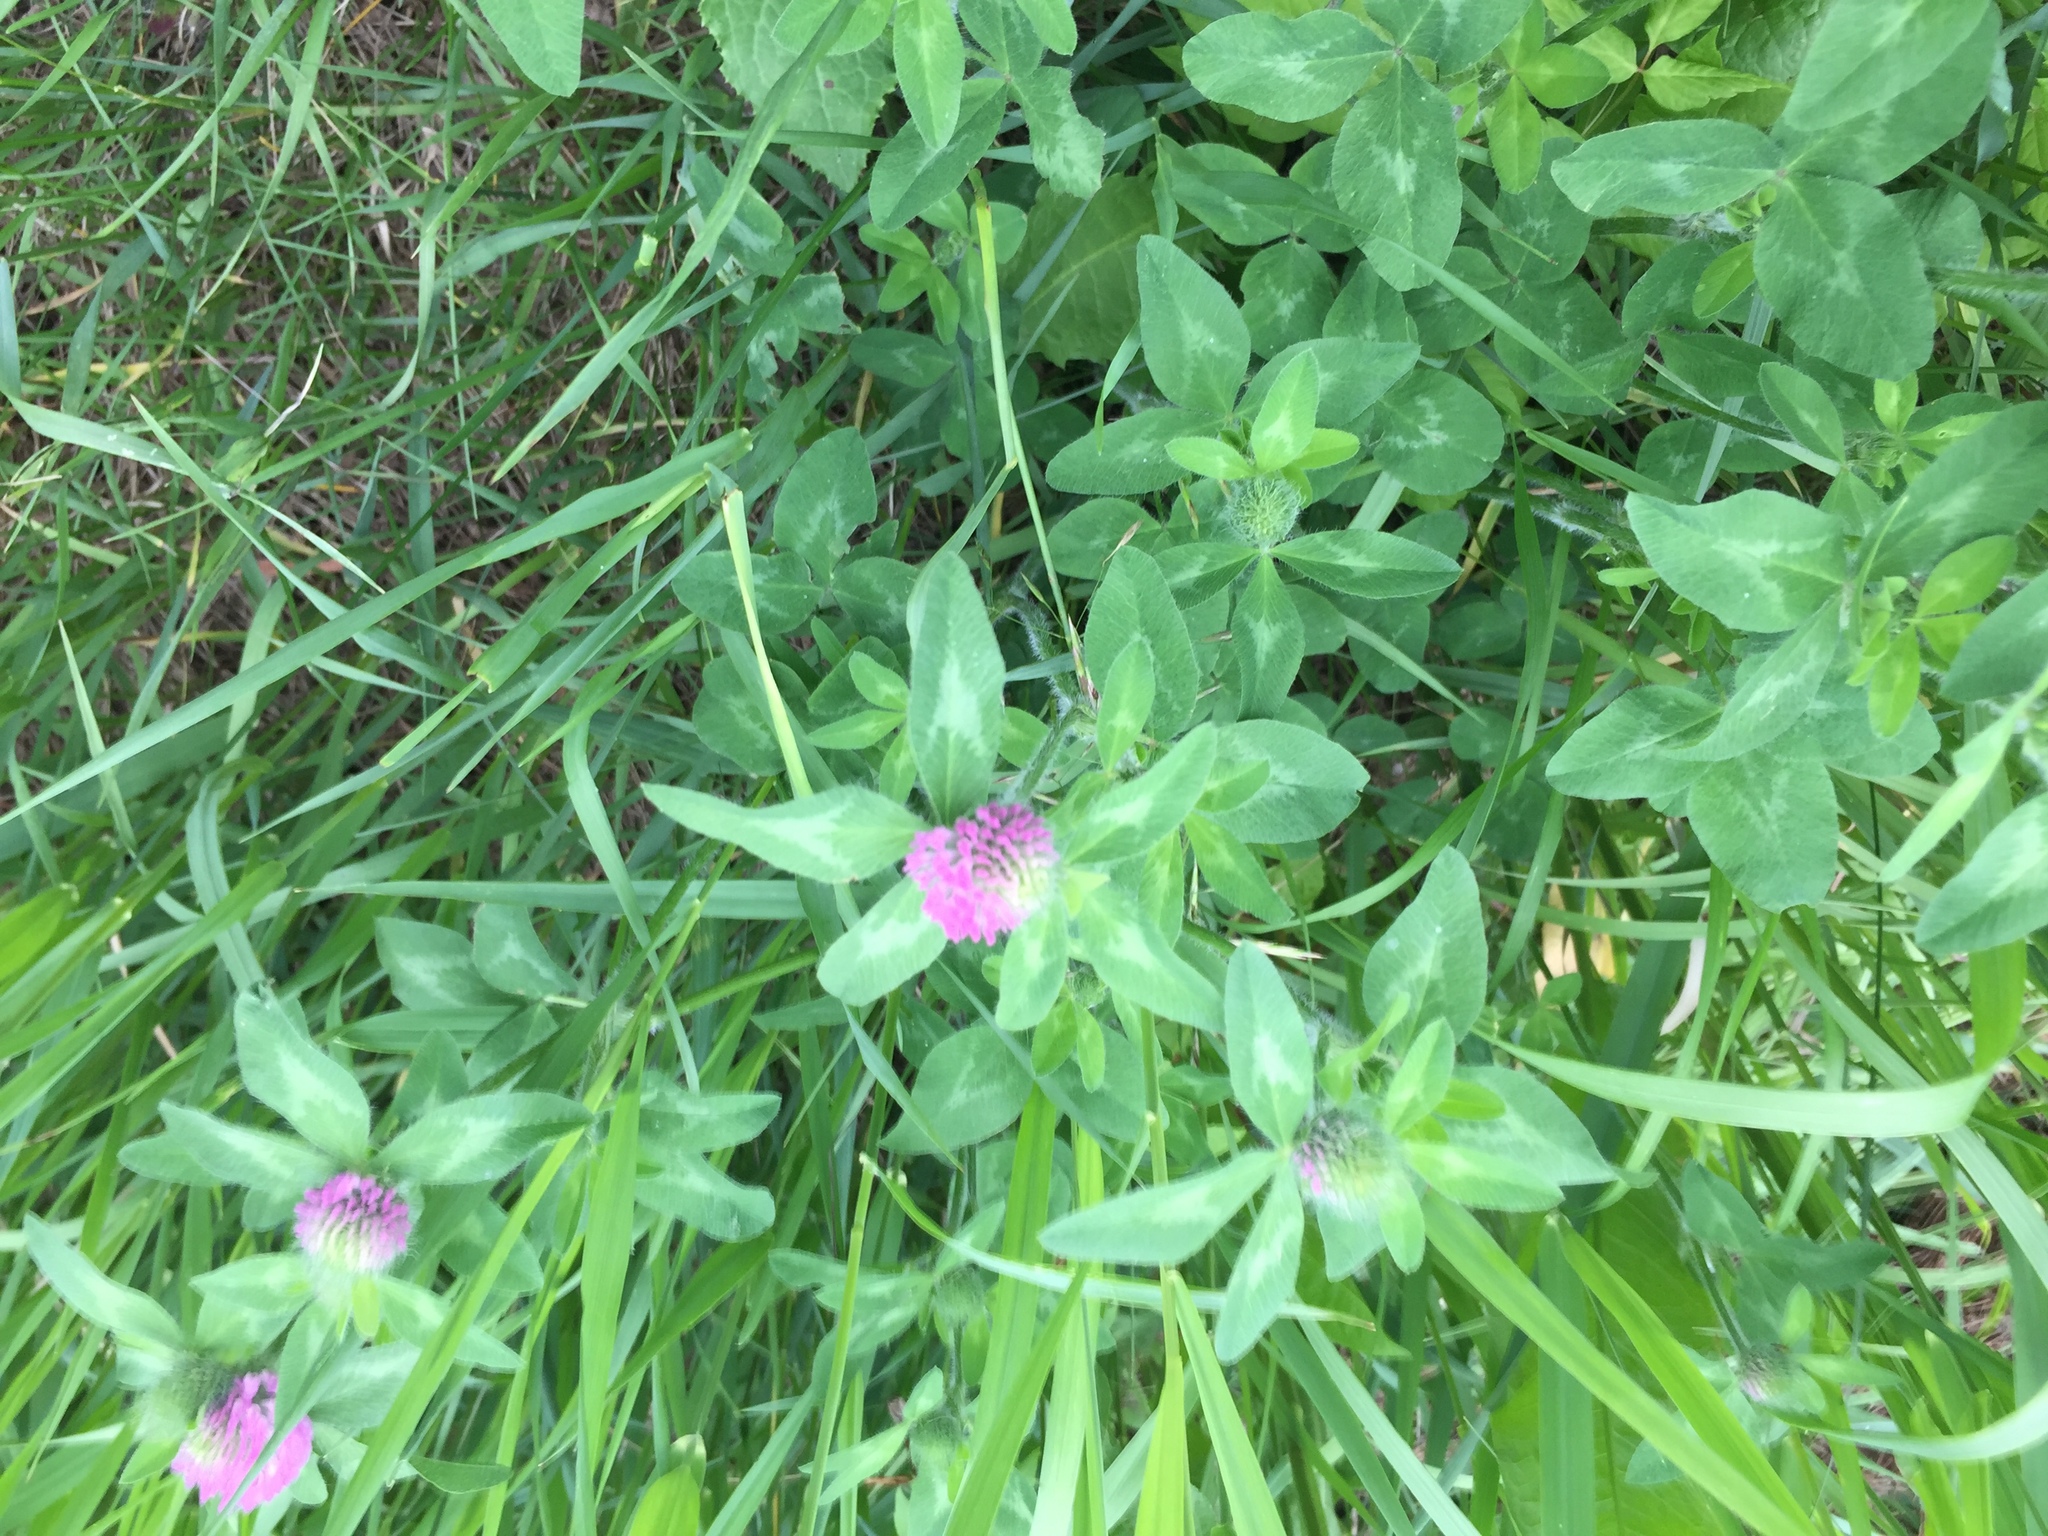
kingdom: Plantae
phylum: Tracheophyta
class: Magnoliopsida
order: Fabales
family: Fabaceae
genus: Trifolium
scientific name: Trifolium pratense
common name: Red clover
